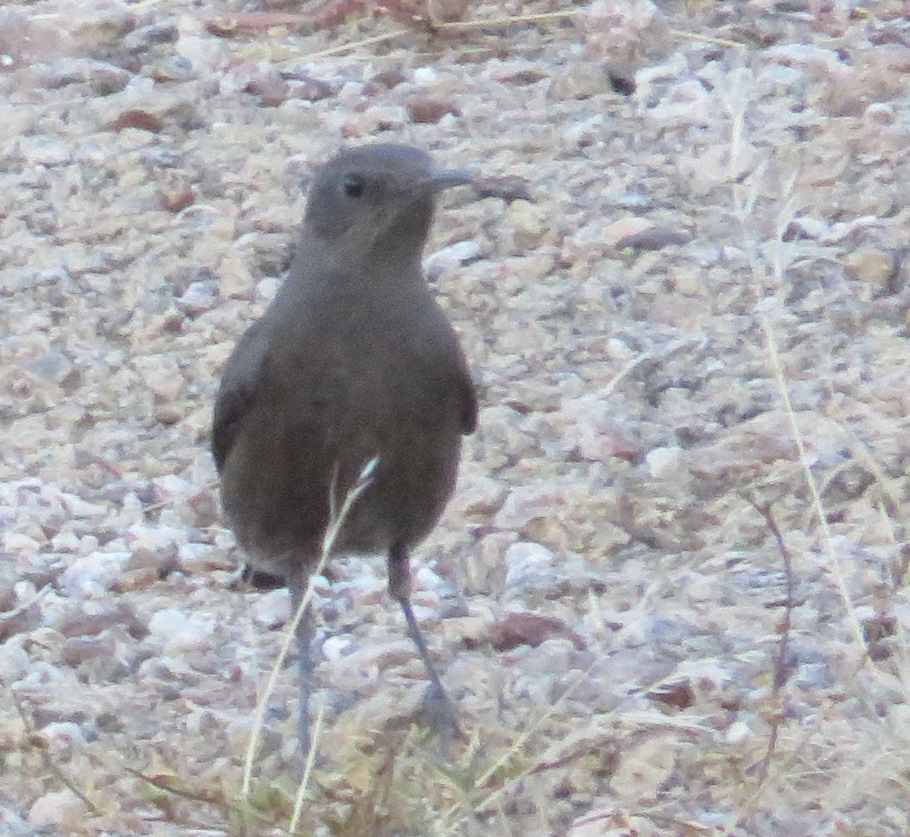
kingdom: Animalia
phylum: Chordata
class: Aves
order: Passeriformes
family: Muscicapidae
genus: Oenanthe
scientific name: Oenanthe monticola
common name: Mountain wheatear
